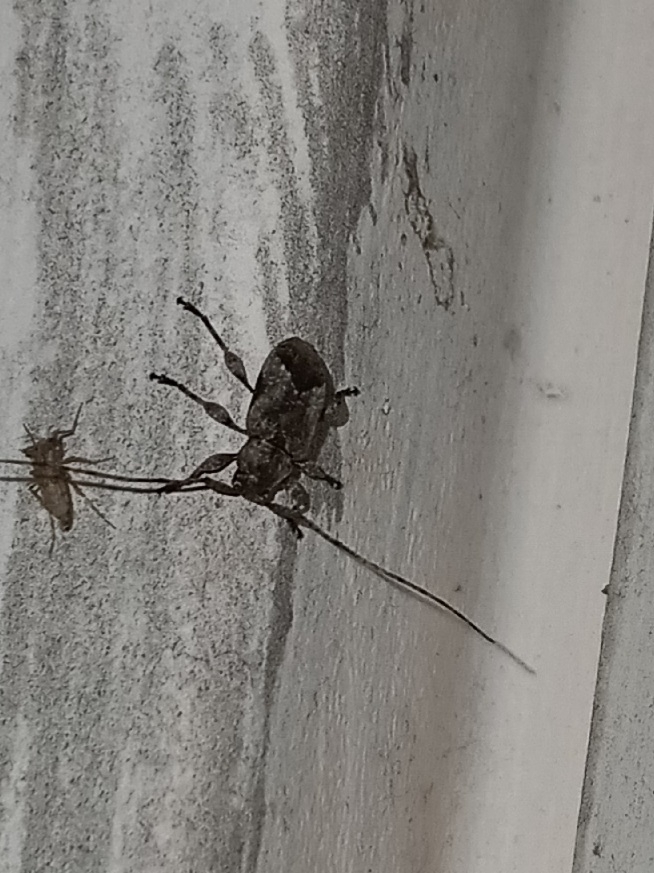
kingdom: Animalia
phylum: Arthropoda
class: Insecta
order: Coleoptera
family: Cerambycidae
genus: Styloleptus
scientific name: Styloleptus biustus
